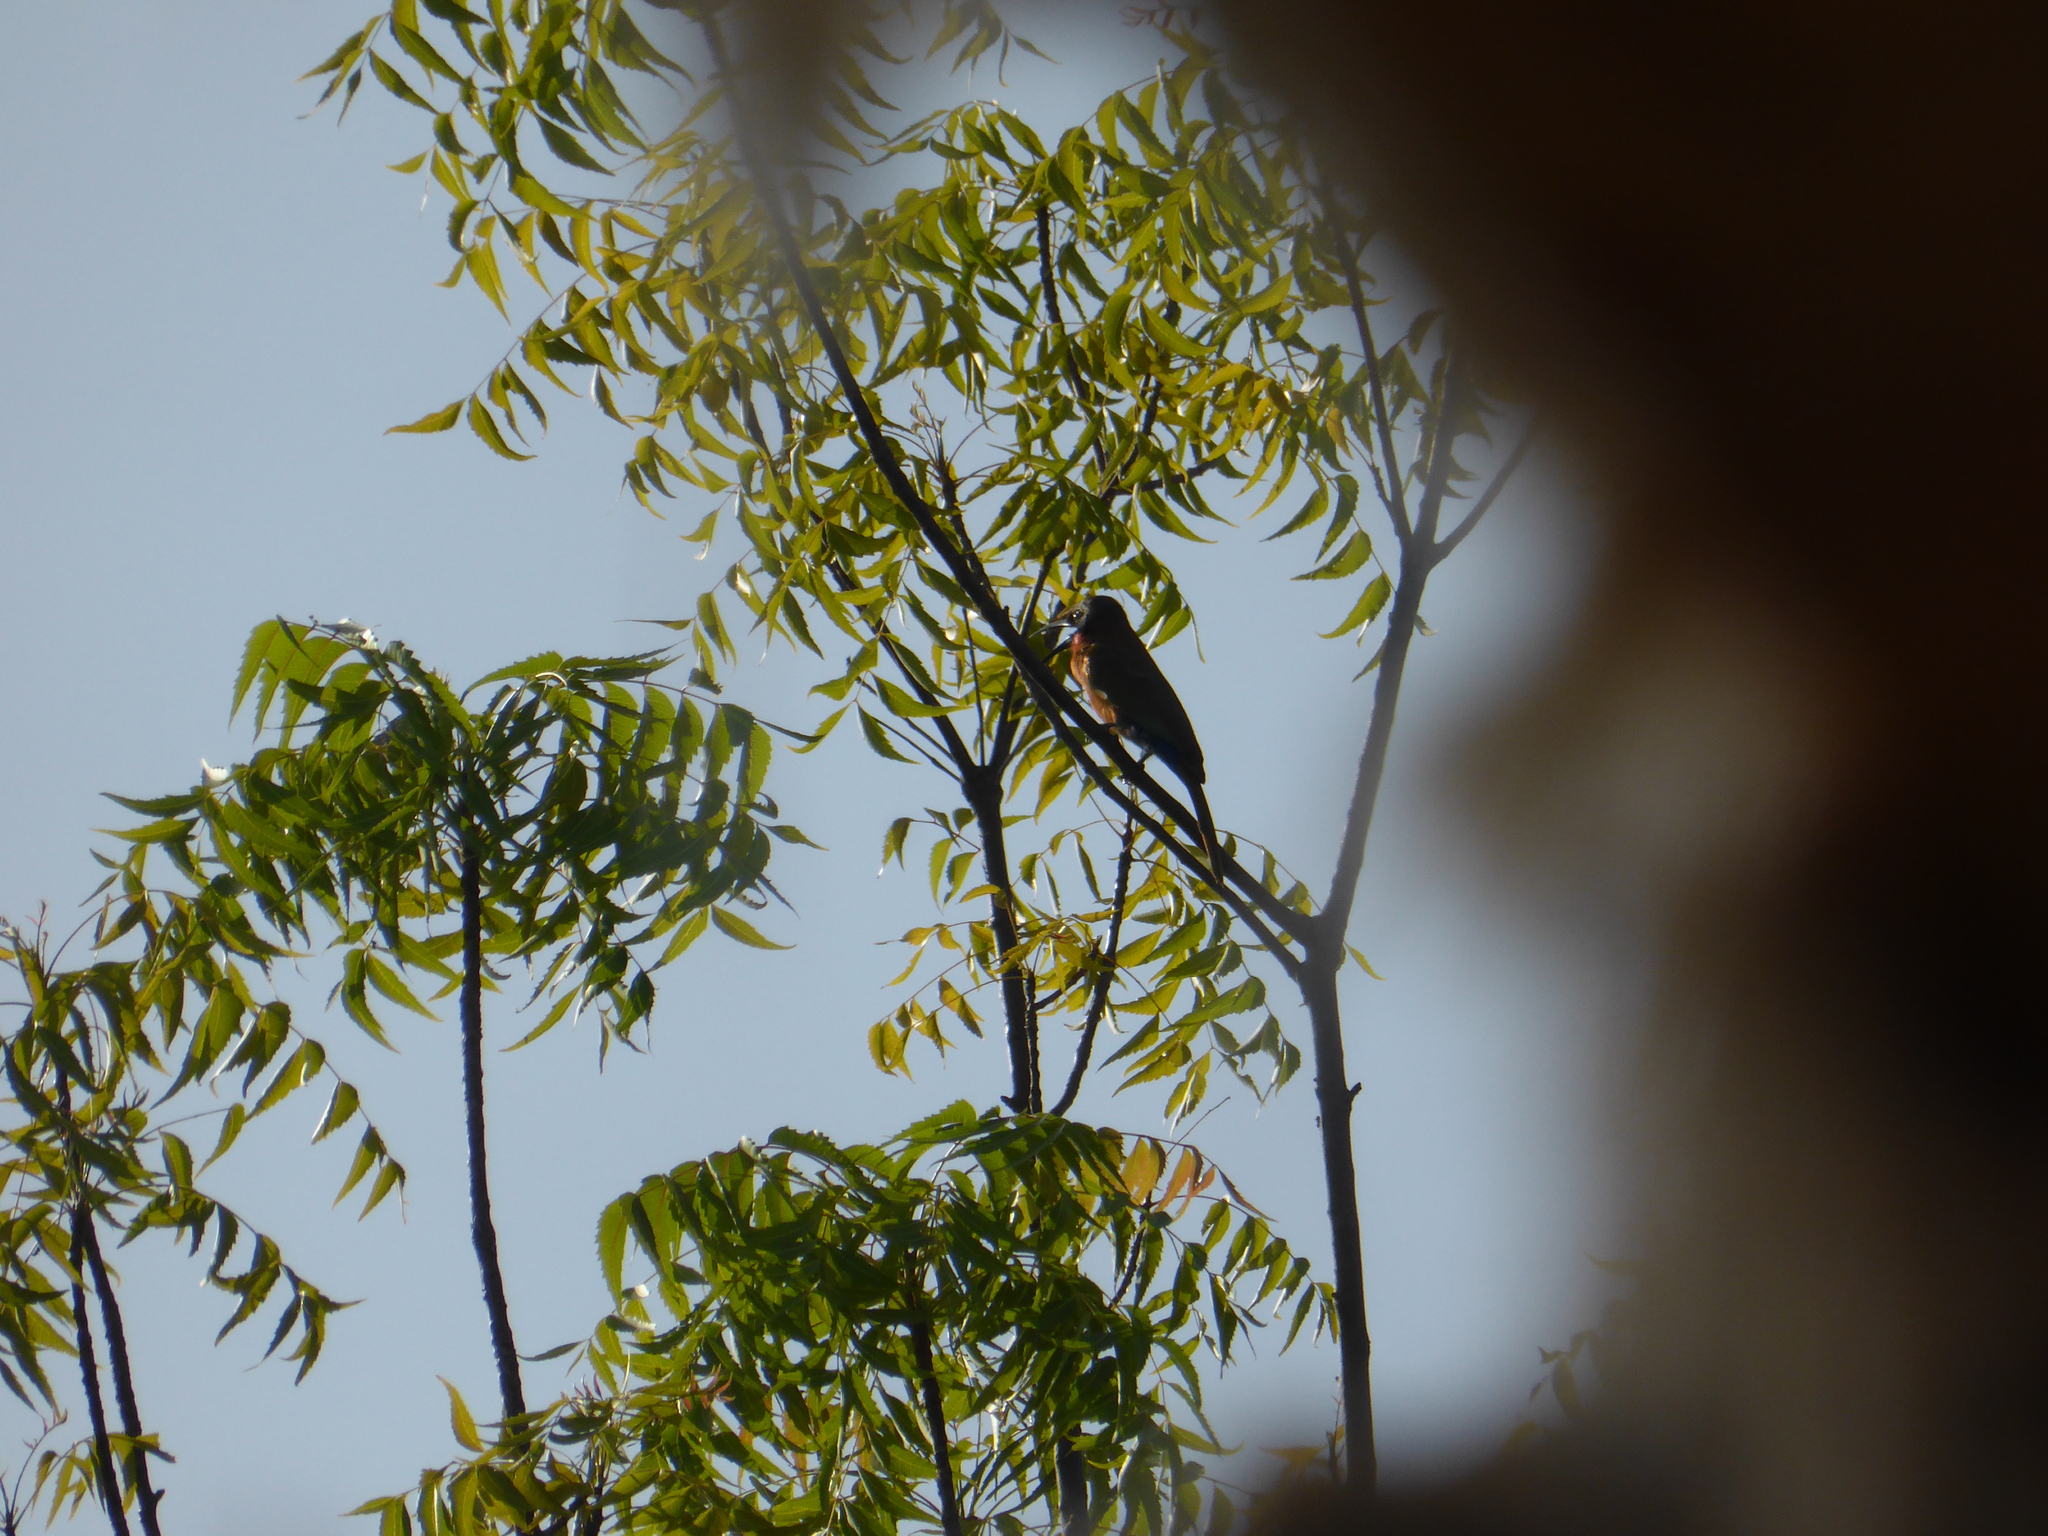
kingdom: Animalia
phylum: Chordata
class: Aves
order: Coraciiformes
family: Meropidae
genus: Merops
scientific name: Merops bulocki
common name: Red-throated bee-eater
